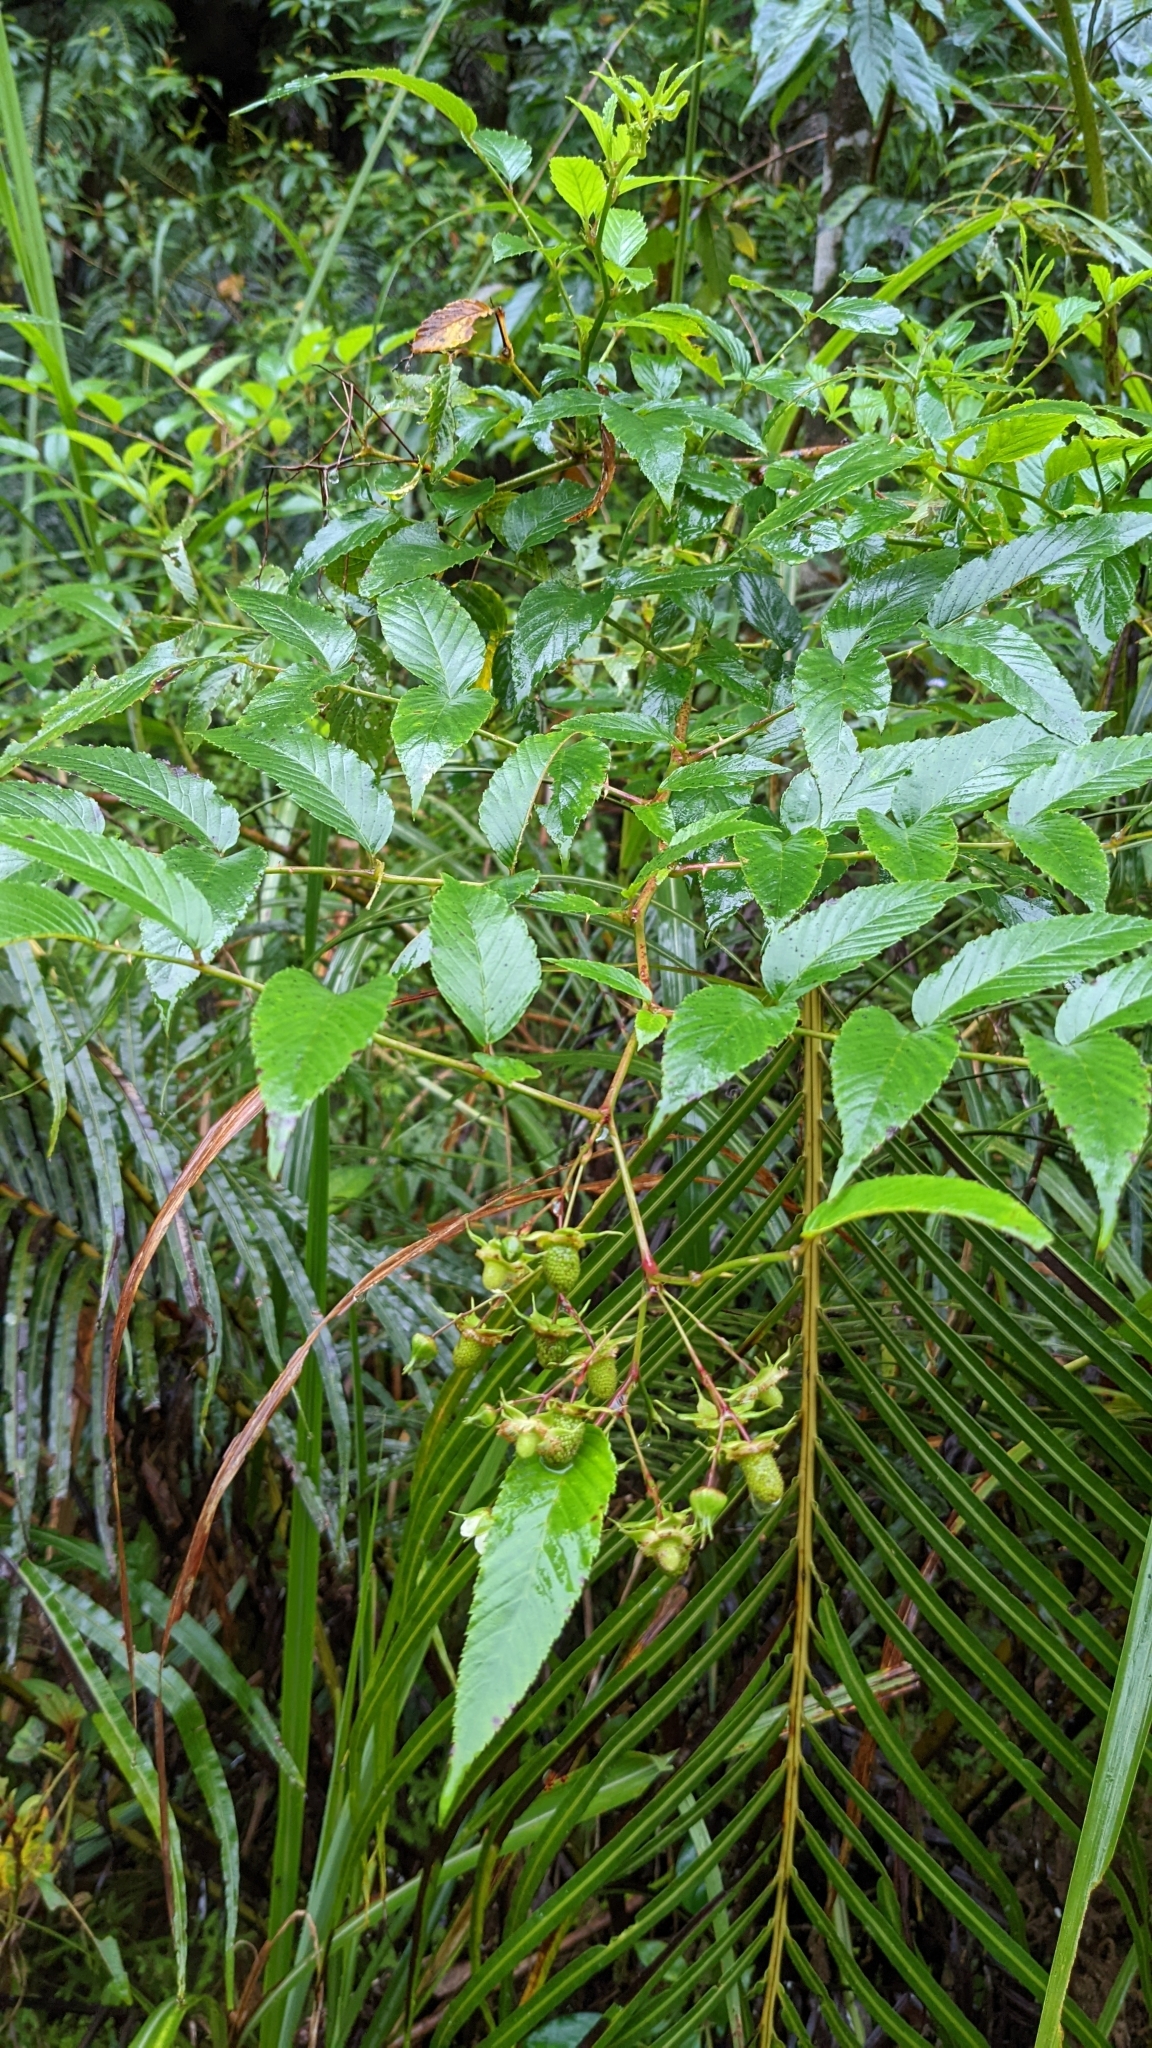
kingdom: Plantae
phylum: Tracheophyta
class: Magnoliopsida
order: Rosales
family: Rosaceae
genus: Rubus
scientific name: Rubus fraxinifolius
